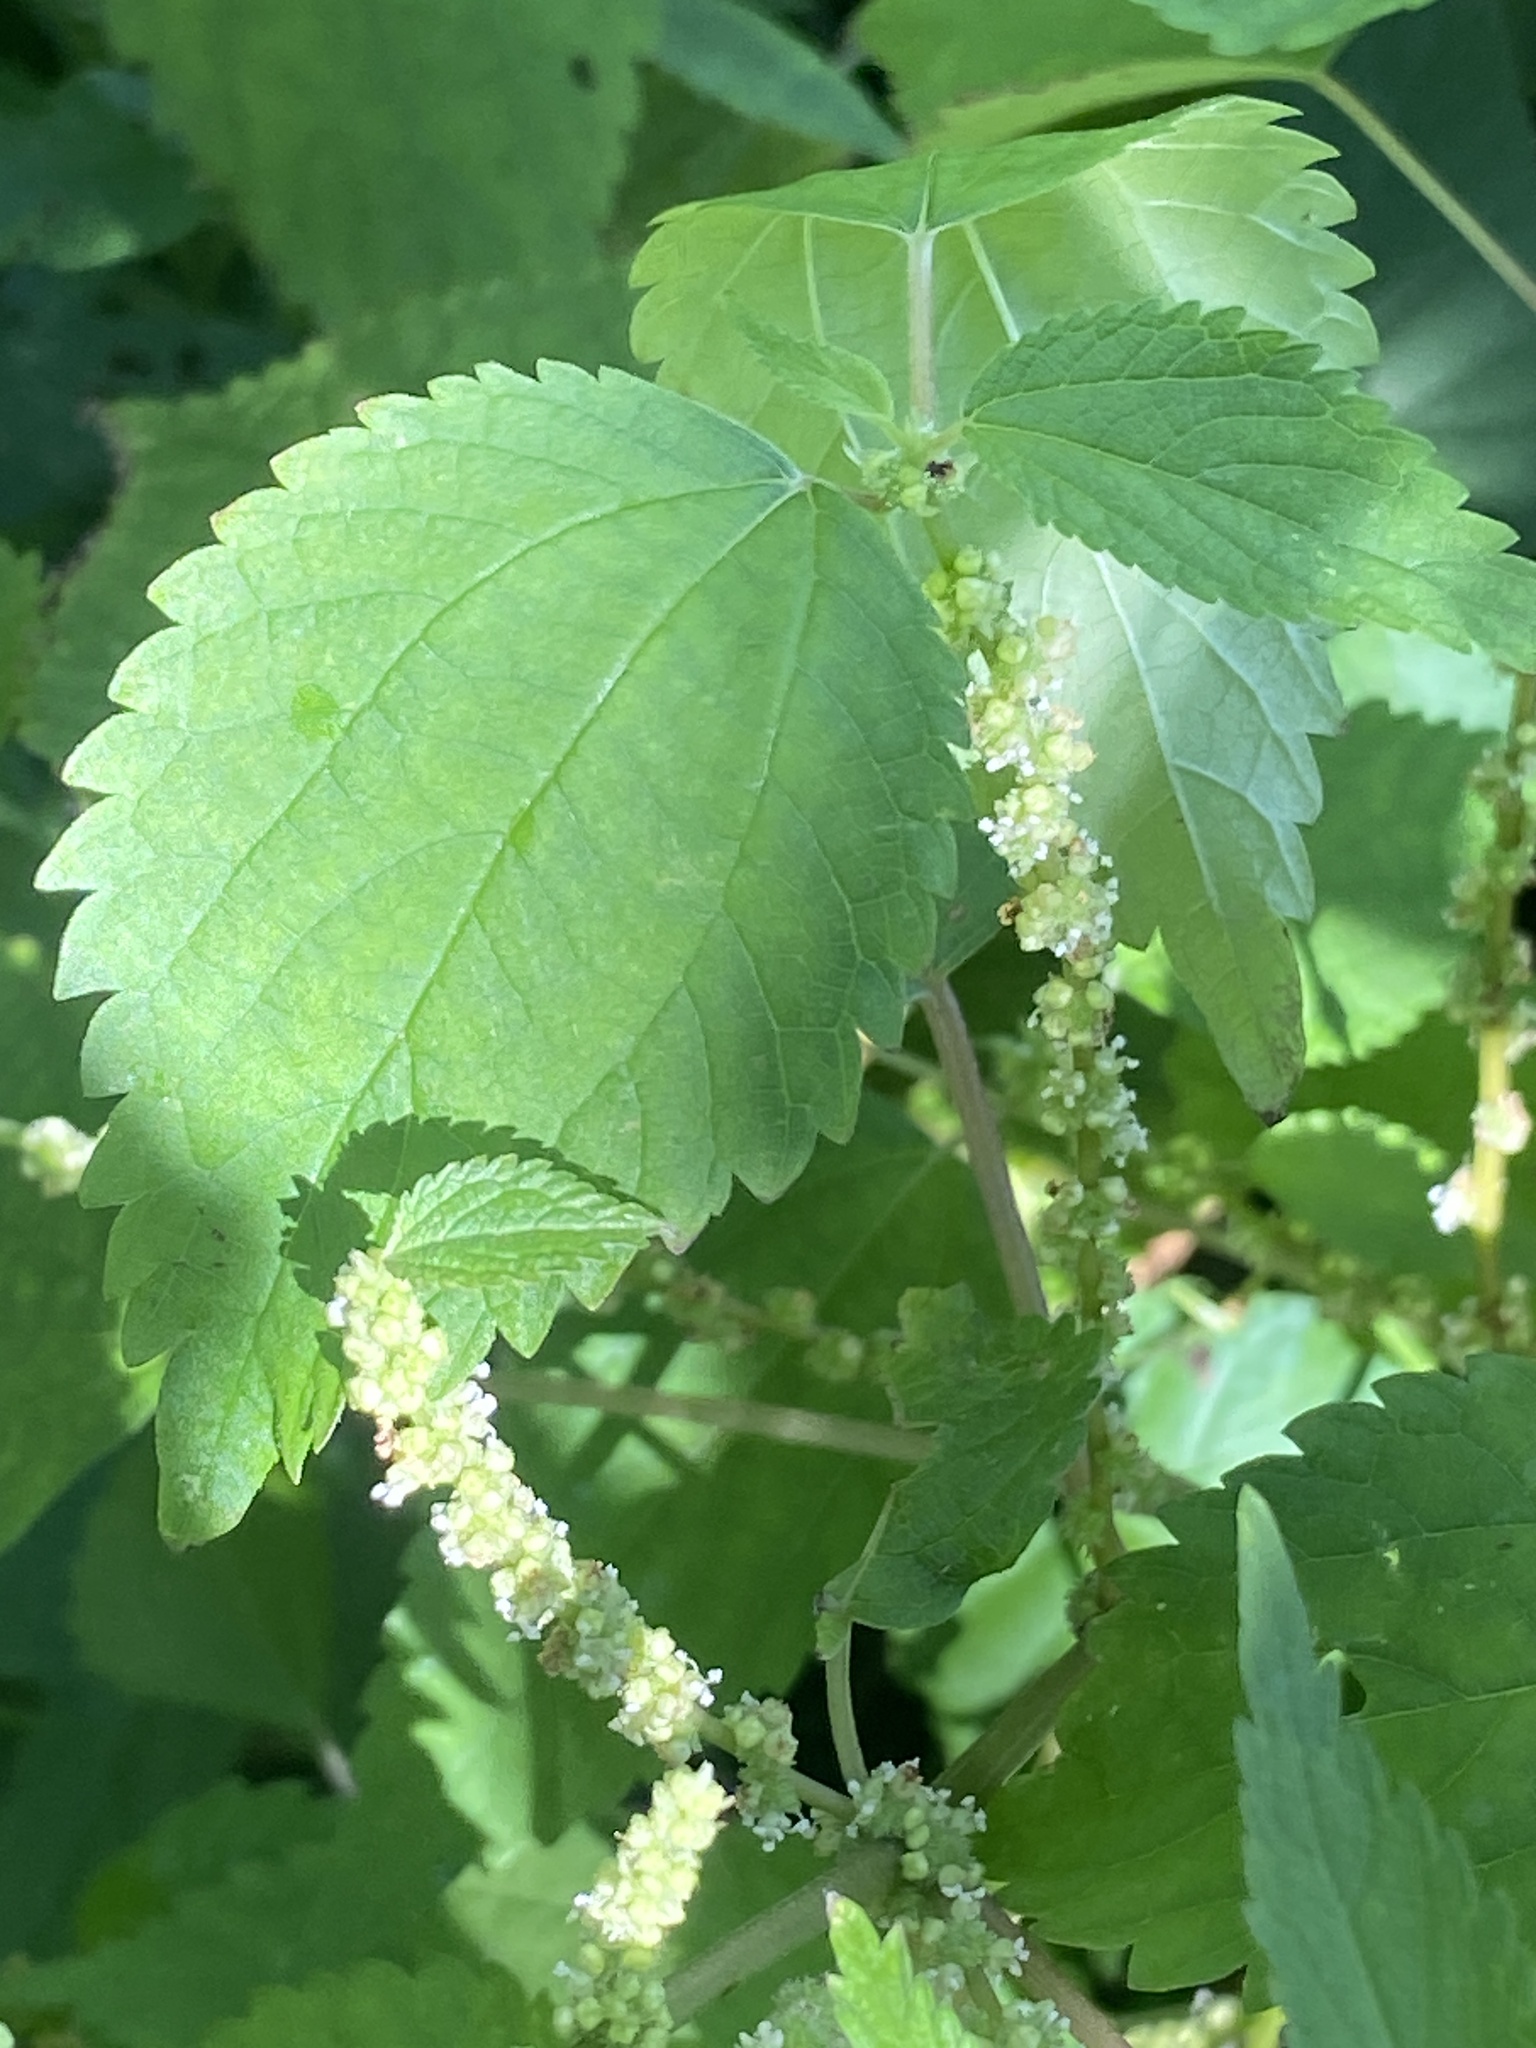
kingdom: Plantae
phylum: Tracheophyta
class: Magnoliopsida
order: Rosales
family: Urticaceae
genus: Boehmeria
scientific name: Boehmeria cylindrica
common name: Bog-hemp
